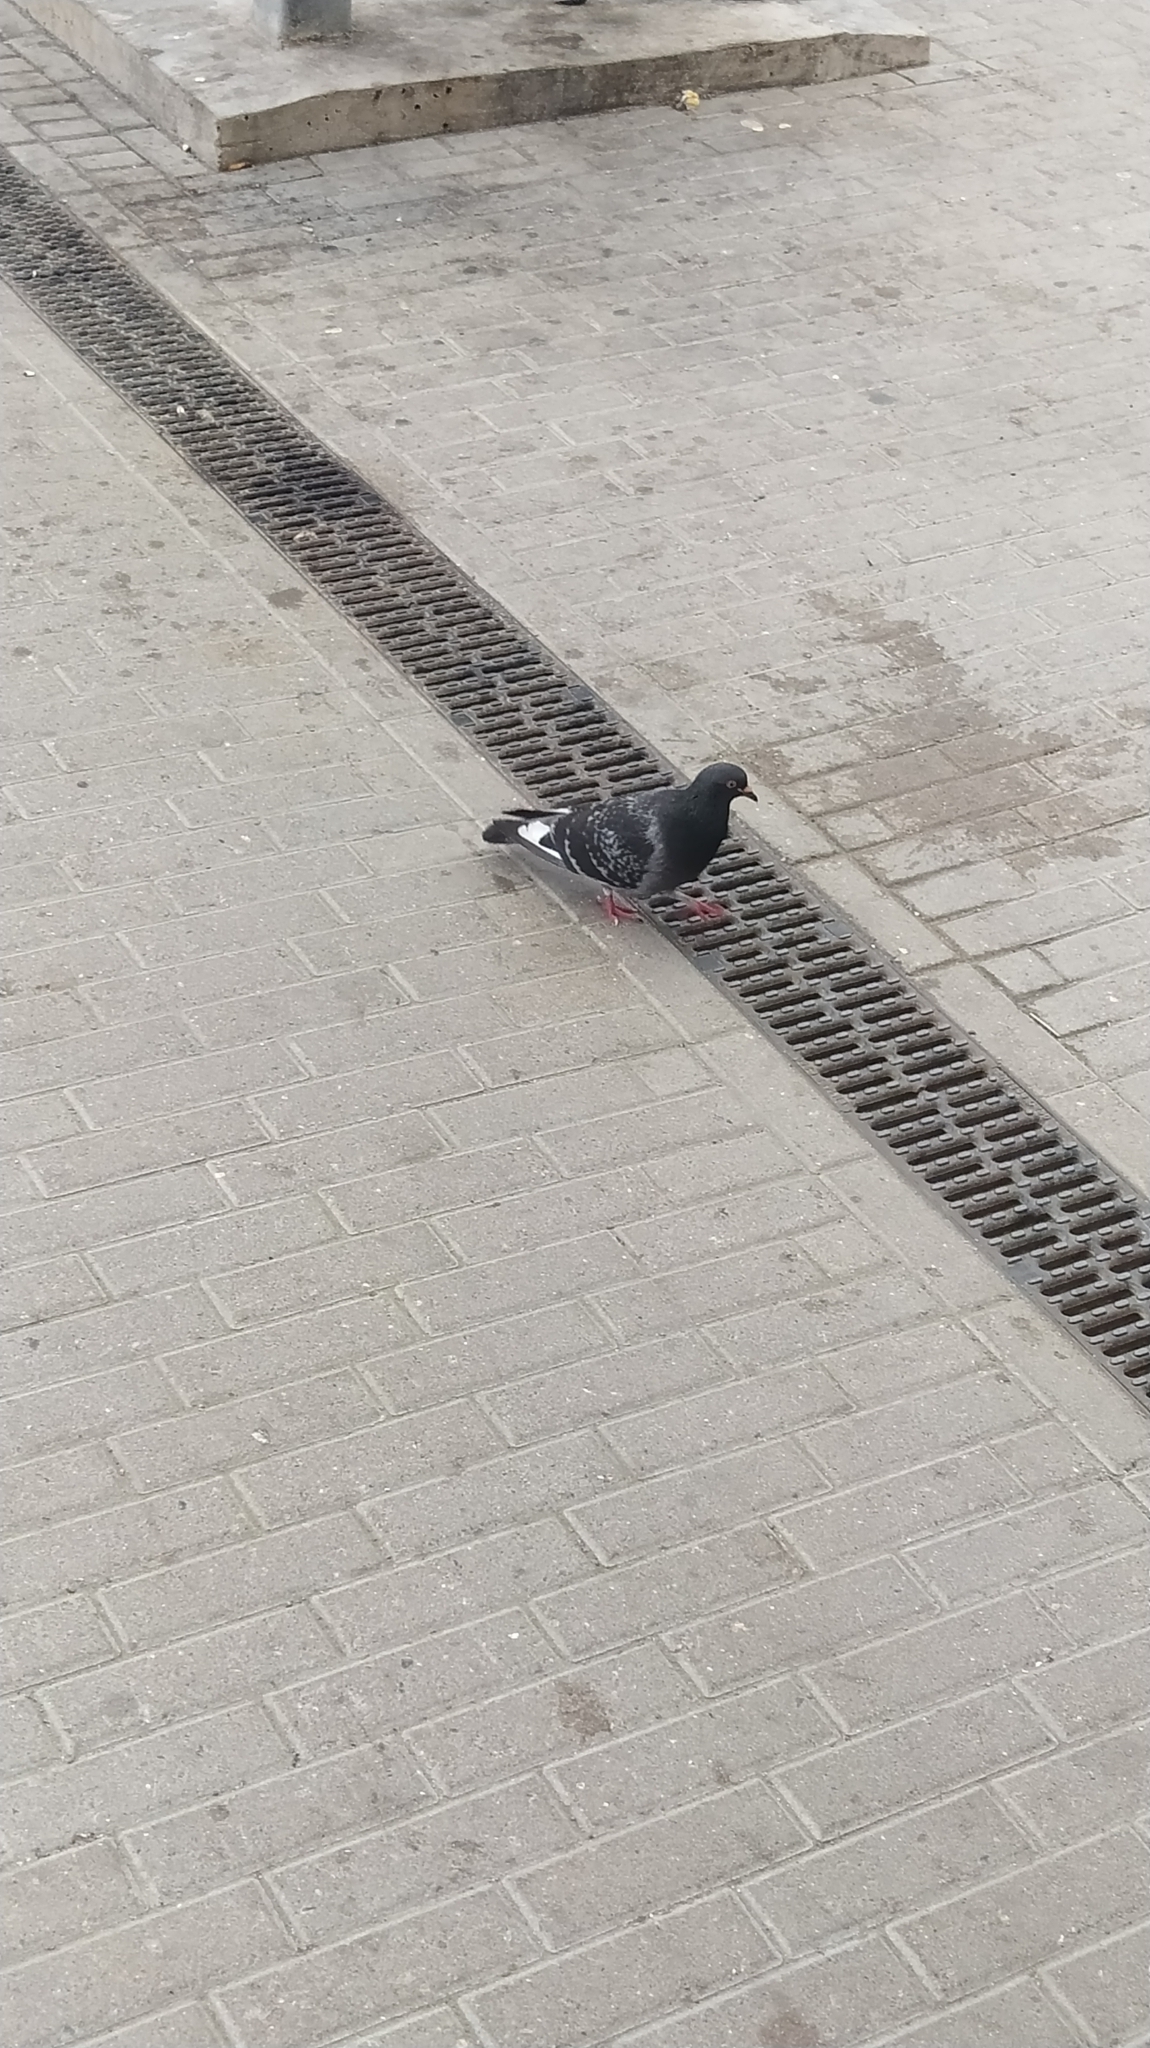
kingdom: Animalia
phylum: Chordata
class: Aves
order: Columbiformes
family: Columbidae
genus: Columba
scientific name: Columba livia
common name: Rock pigeon
